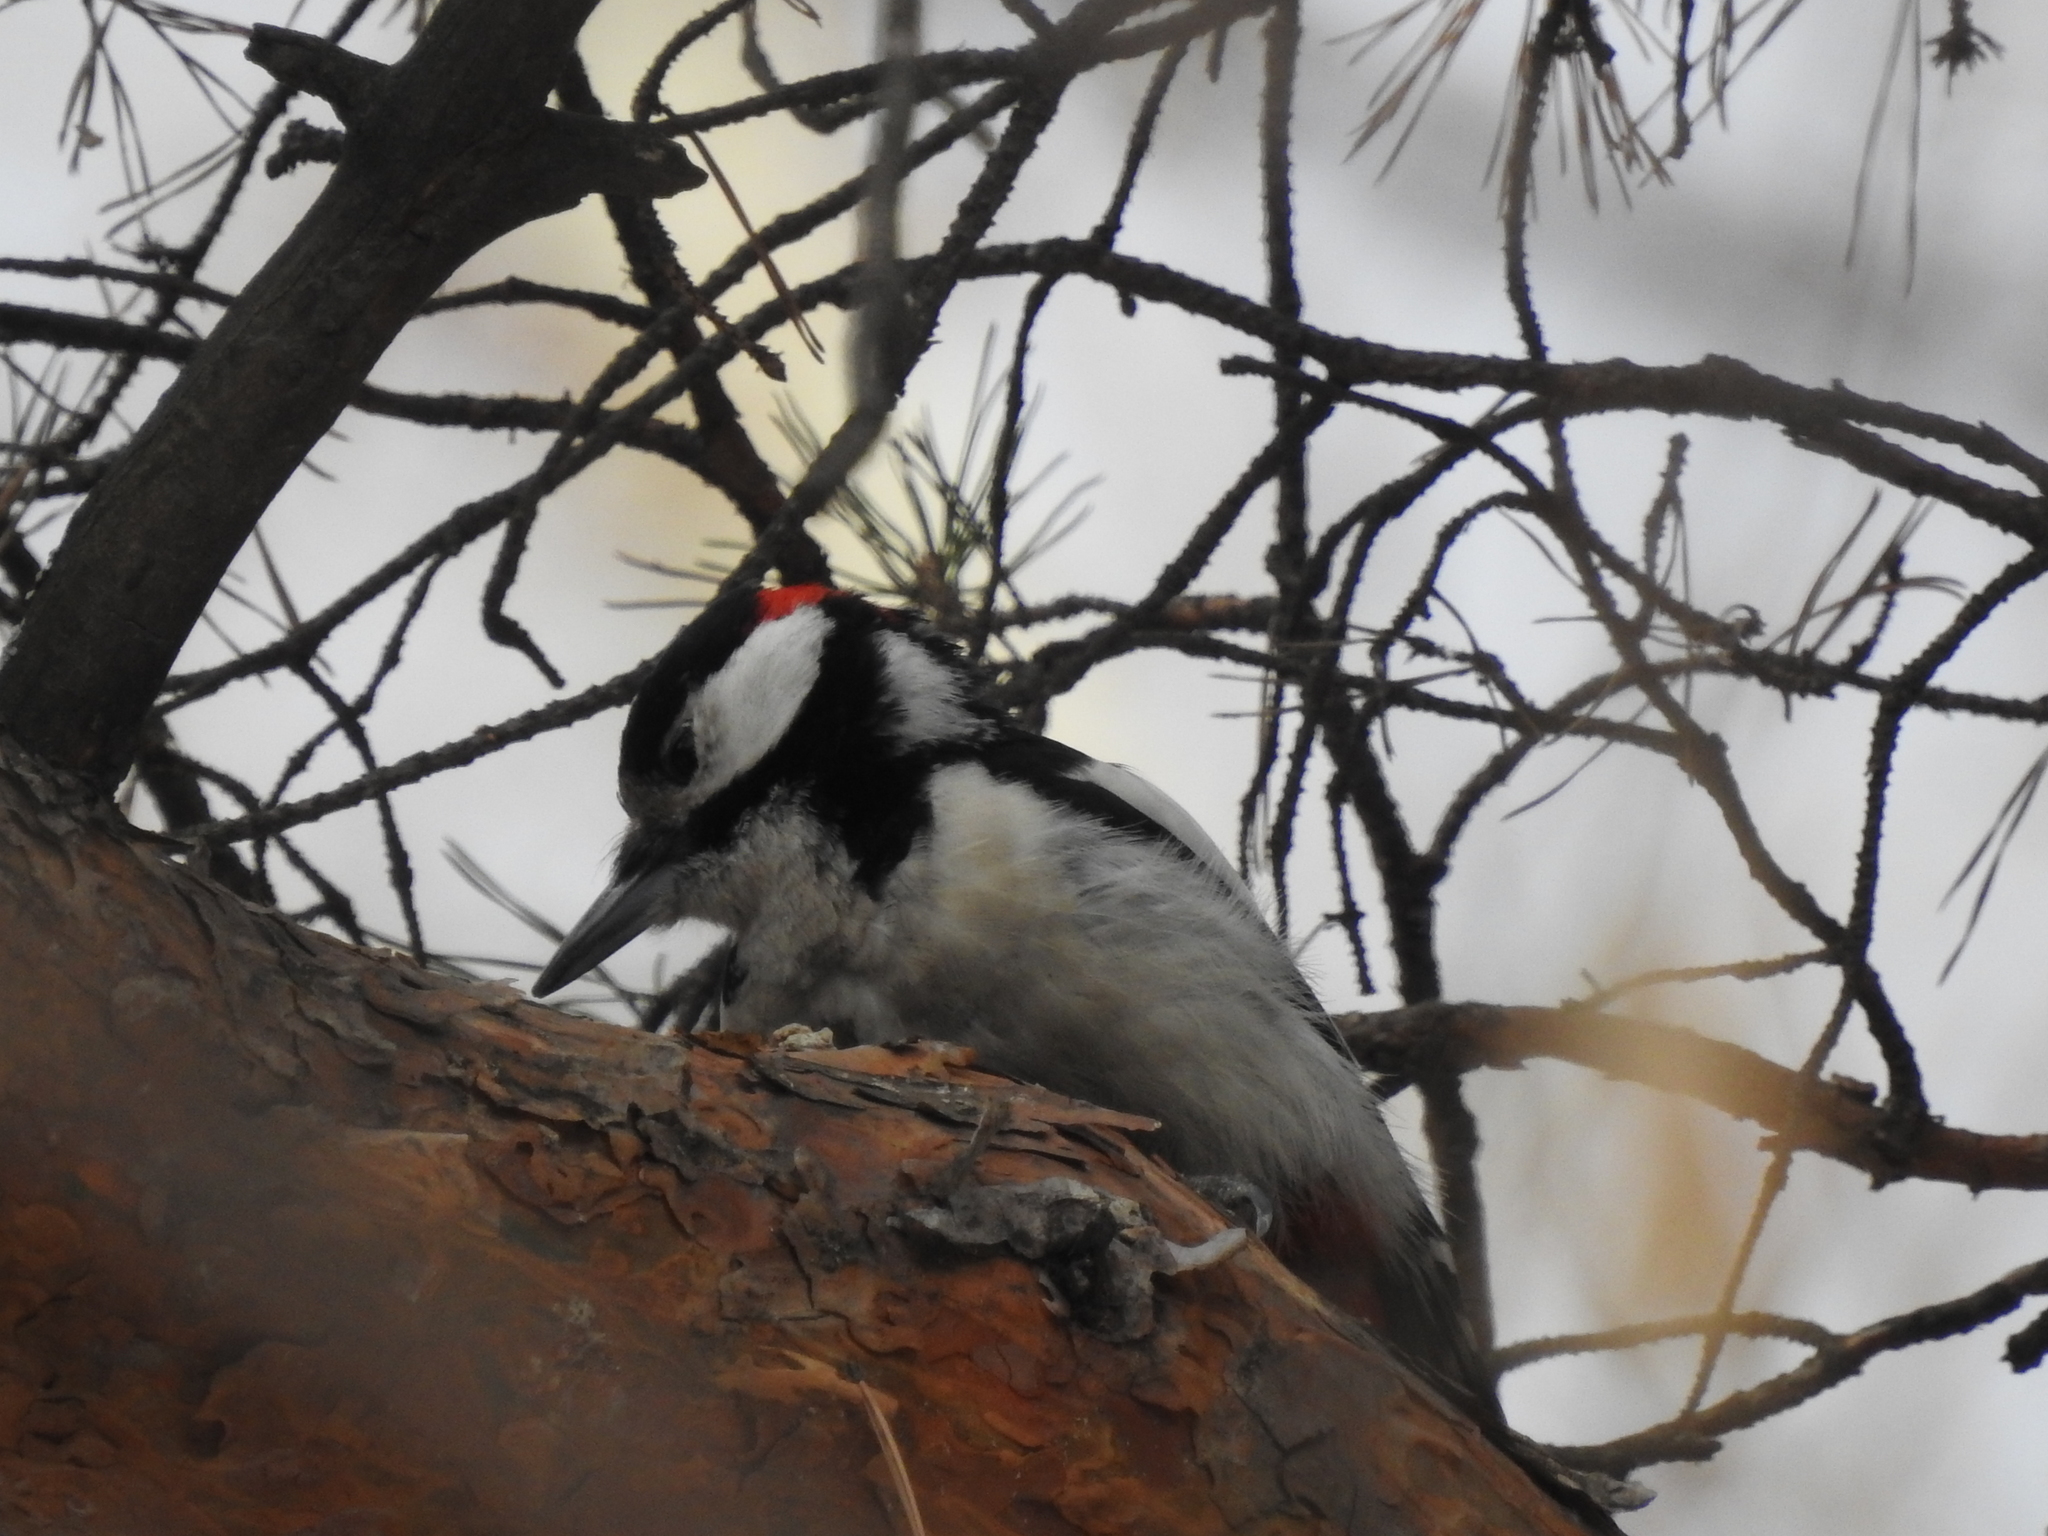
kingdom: Animalia
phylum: Chordata
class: Aves
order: Piciformes
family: Picidae
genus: Dendrocopos
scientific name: Dendrocopos major
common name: Great spotted woodpecker
